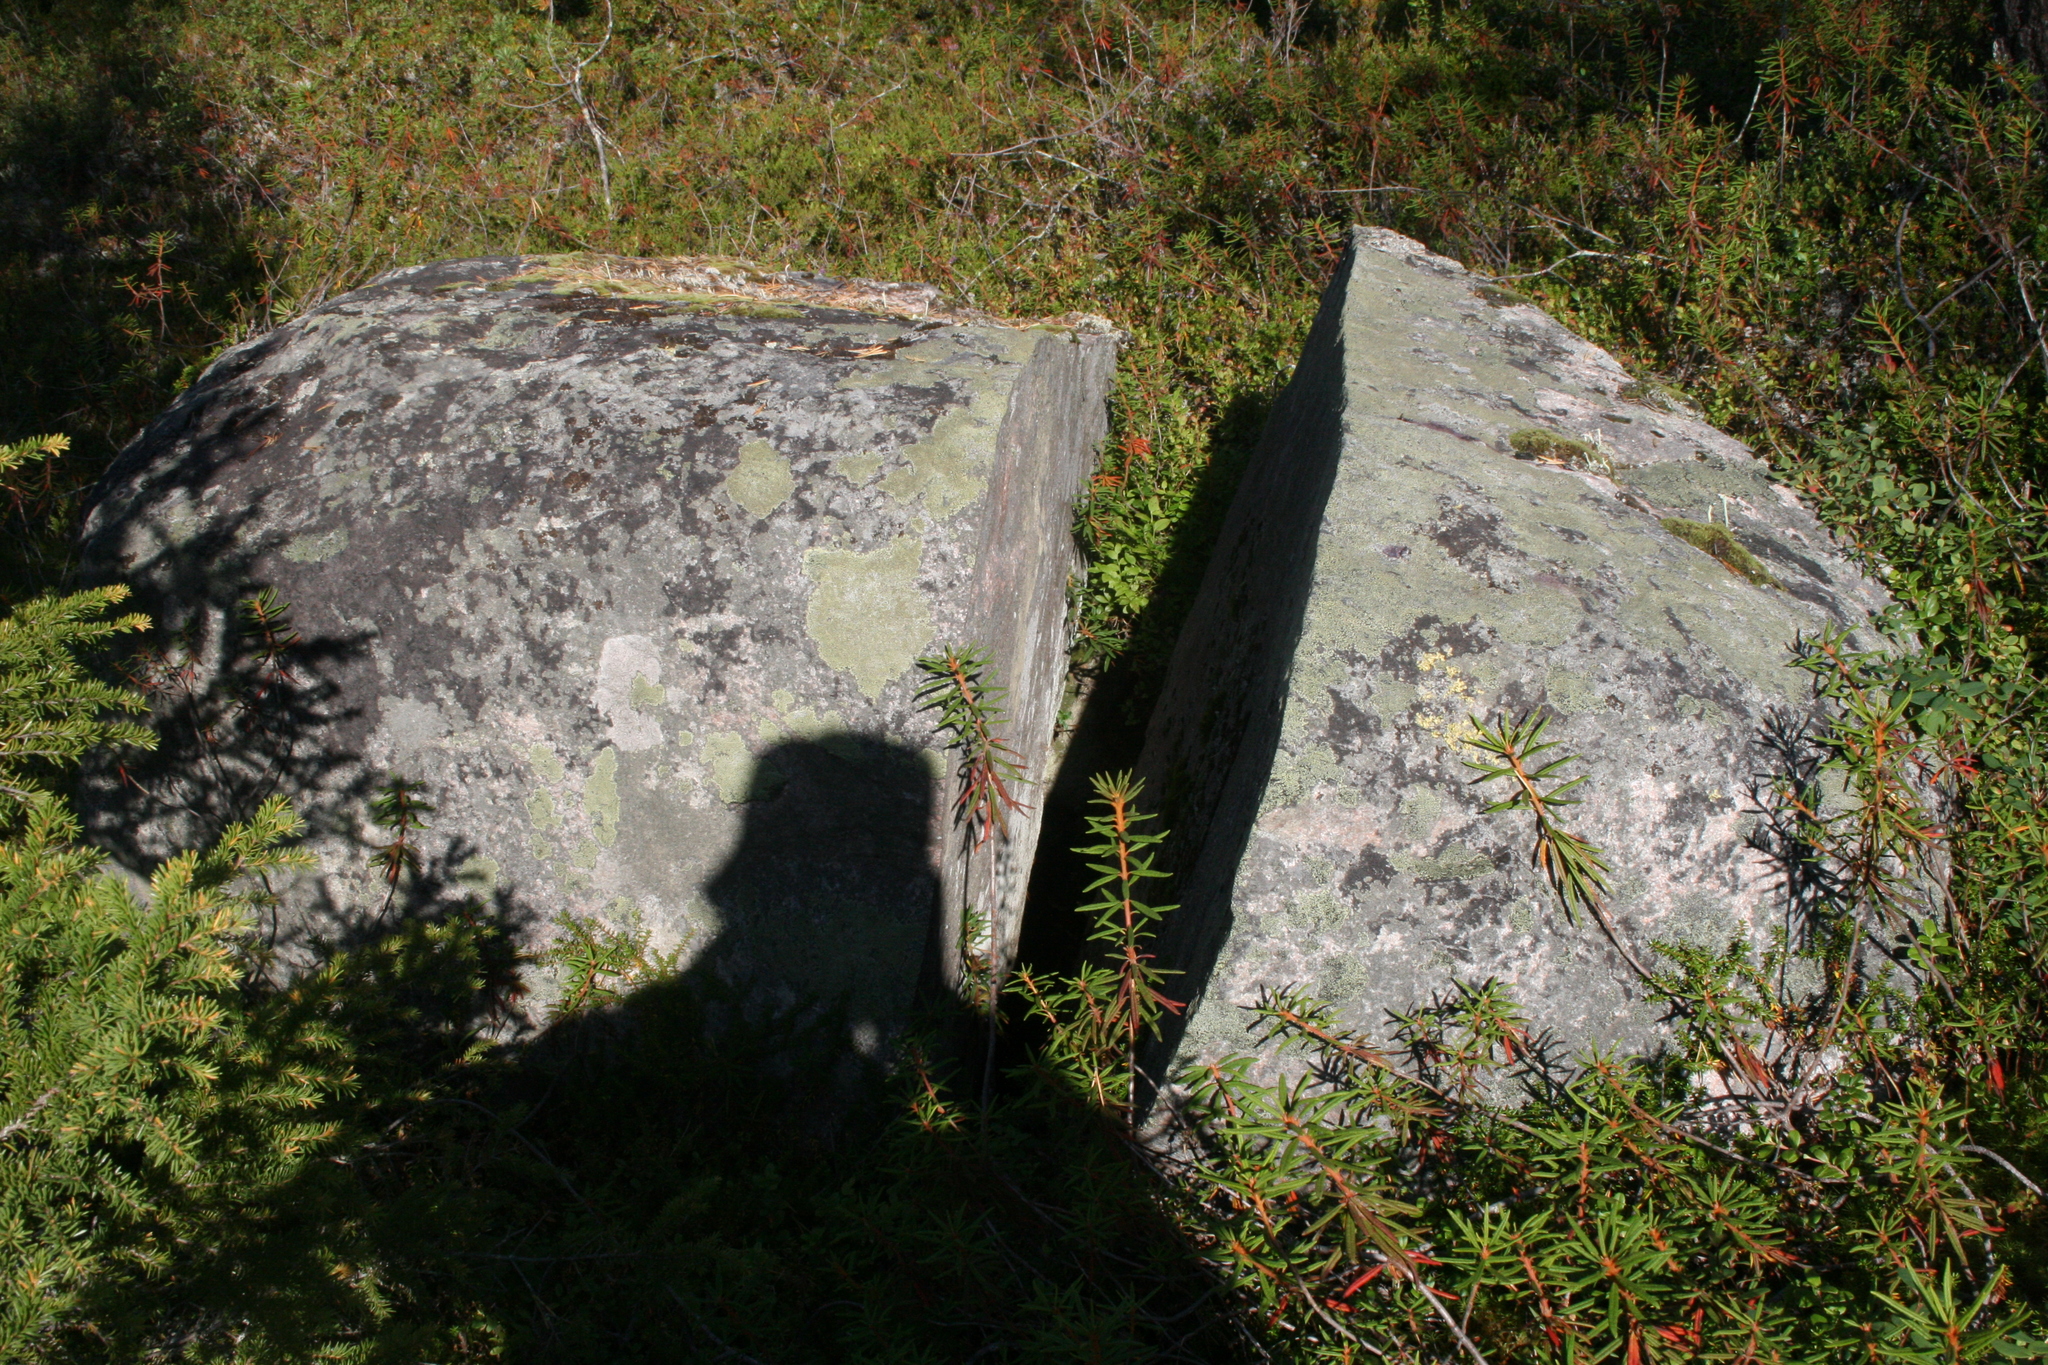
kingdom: Plantae
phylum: Tracheophyta
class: Magnoliopsida
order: Ericales
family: Ericaceae
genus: Rhododendron
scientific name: Rhododendron tomentosum
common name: Marsh labrador tea
